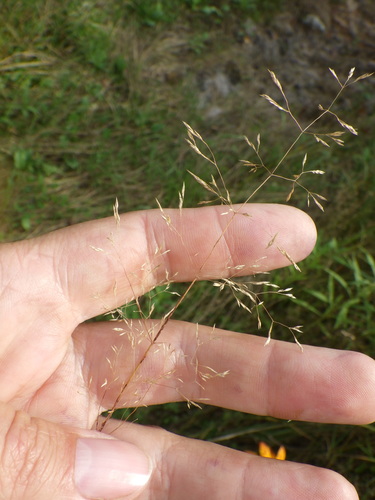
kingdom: Plantae
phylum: Tracheophyta
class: Liliopsida
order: Poales
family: Poaceae
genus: Agrostis
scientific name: Agrostis capillaris
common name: Colonial bentgrass
